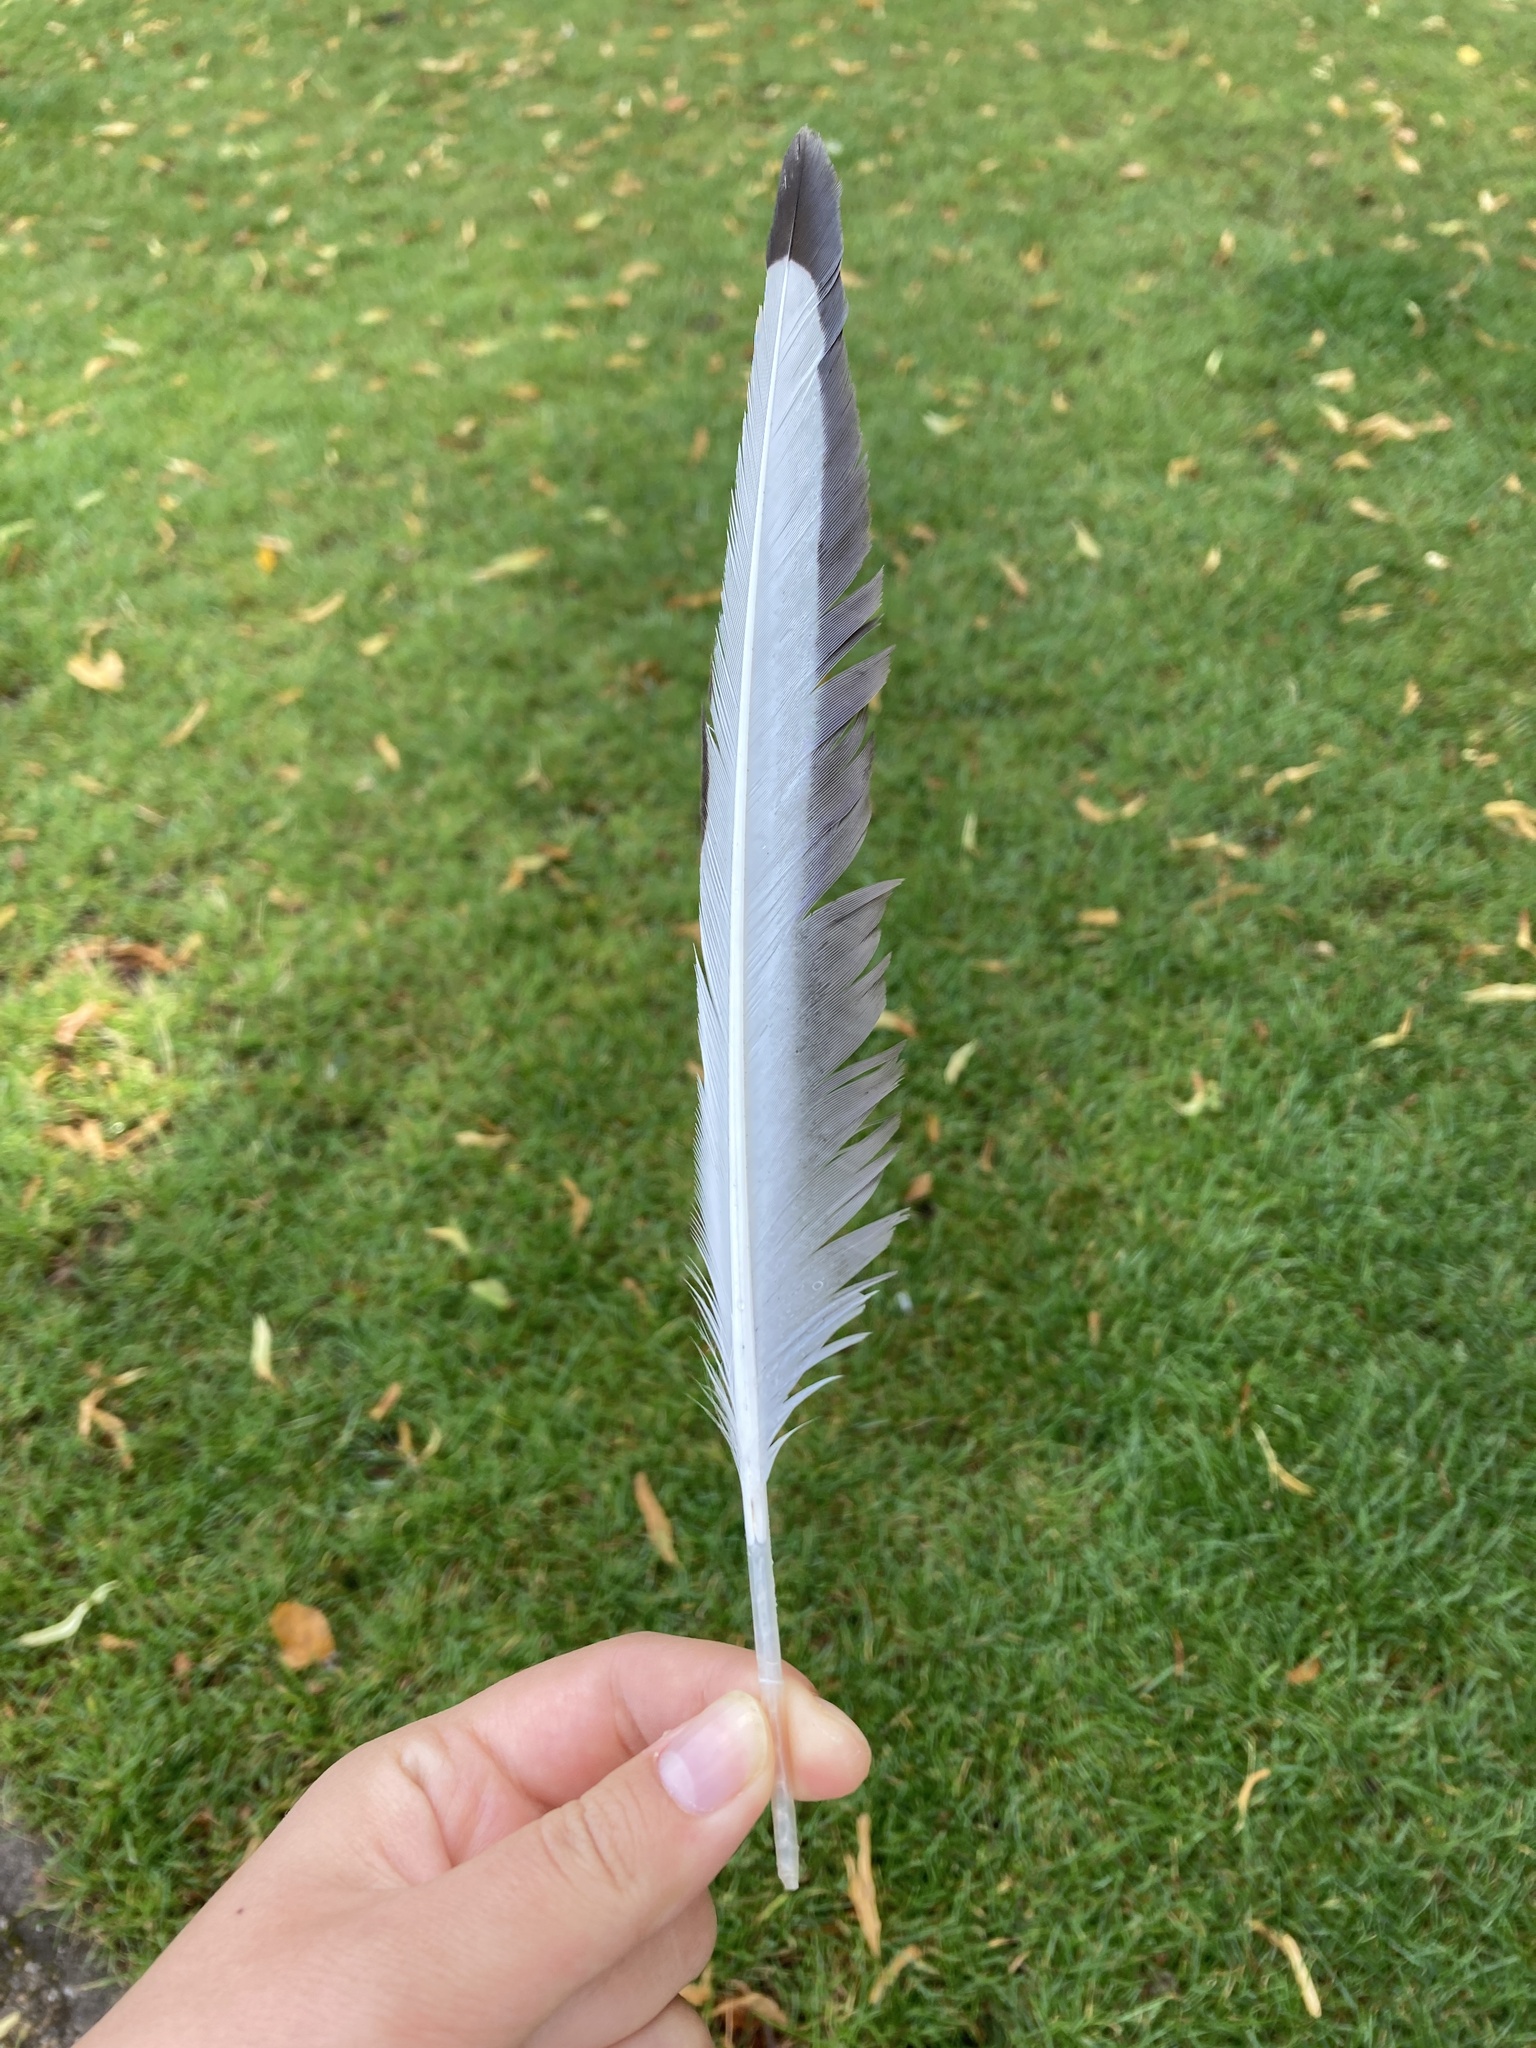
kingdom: Animalia
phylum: Chordata
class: Aves
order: Charadriiformes
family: Laridae
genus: Chroicocephalus
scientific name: Chroicocephalus ridibundus
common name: Black-headed gull
